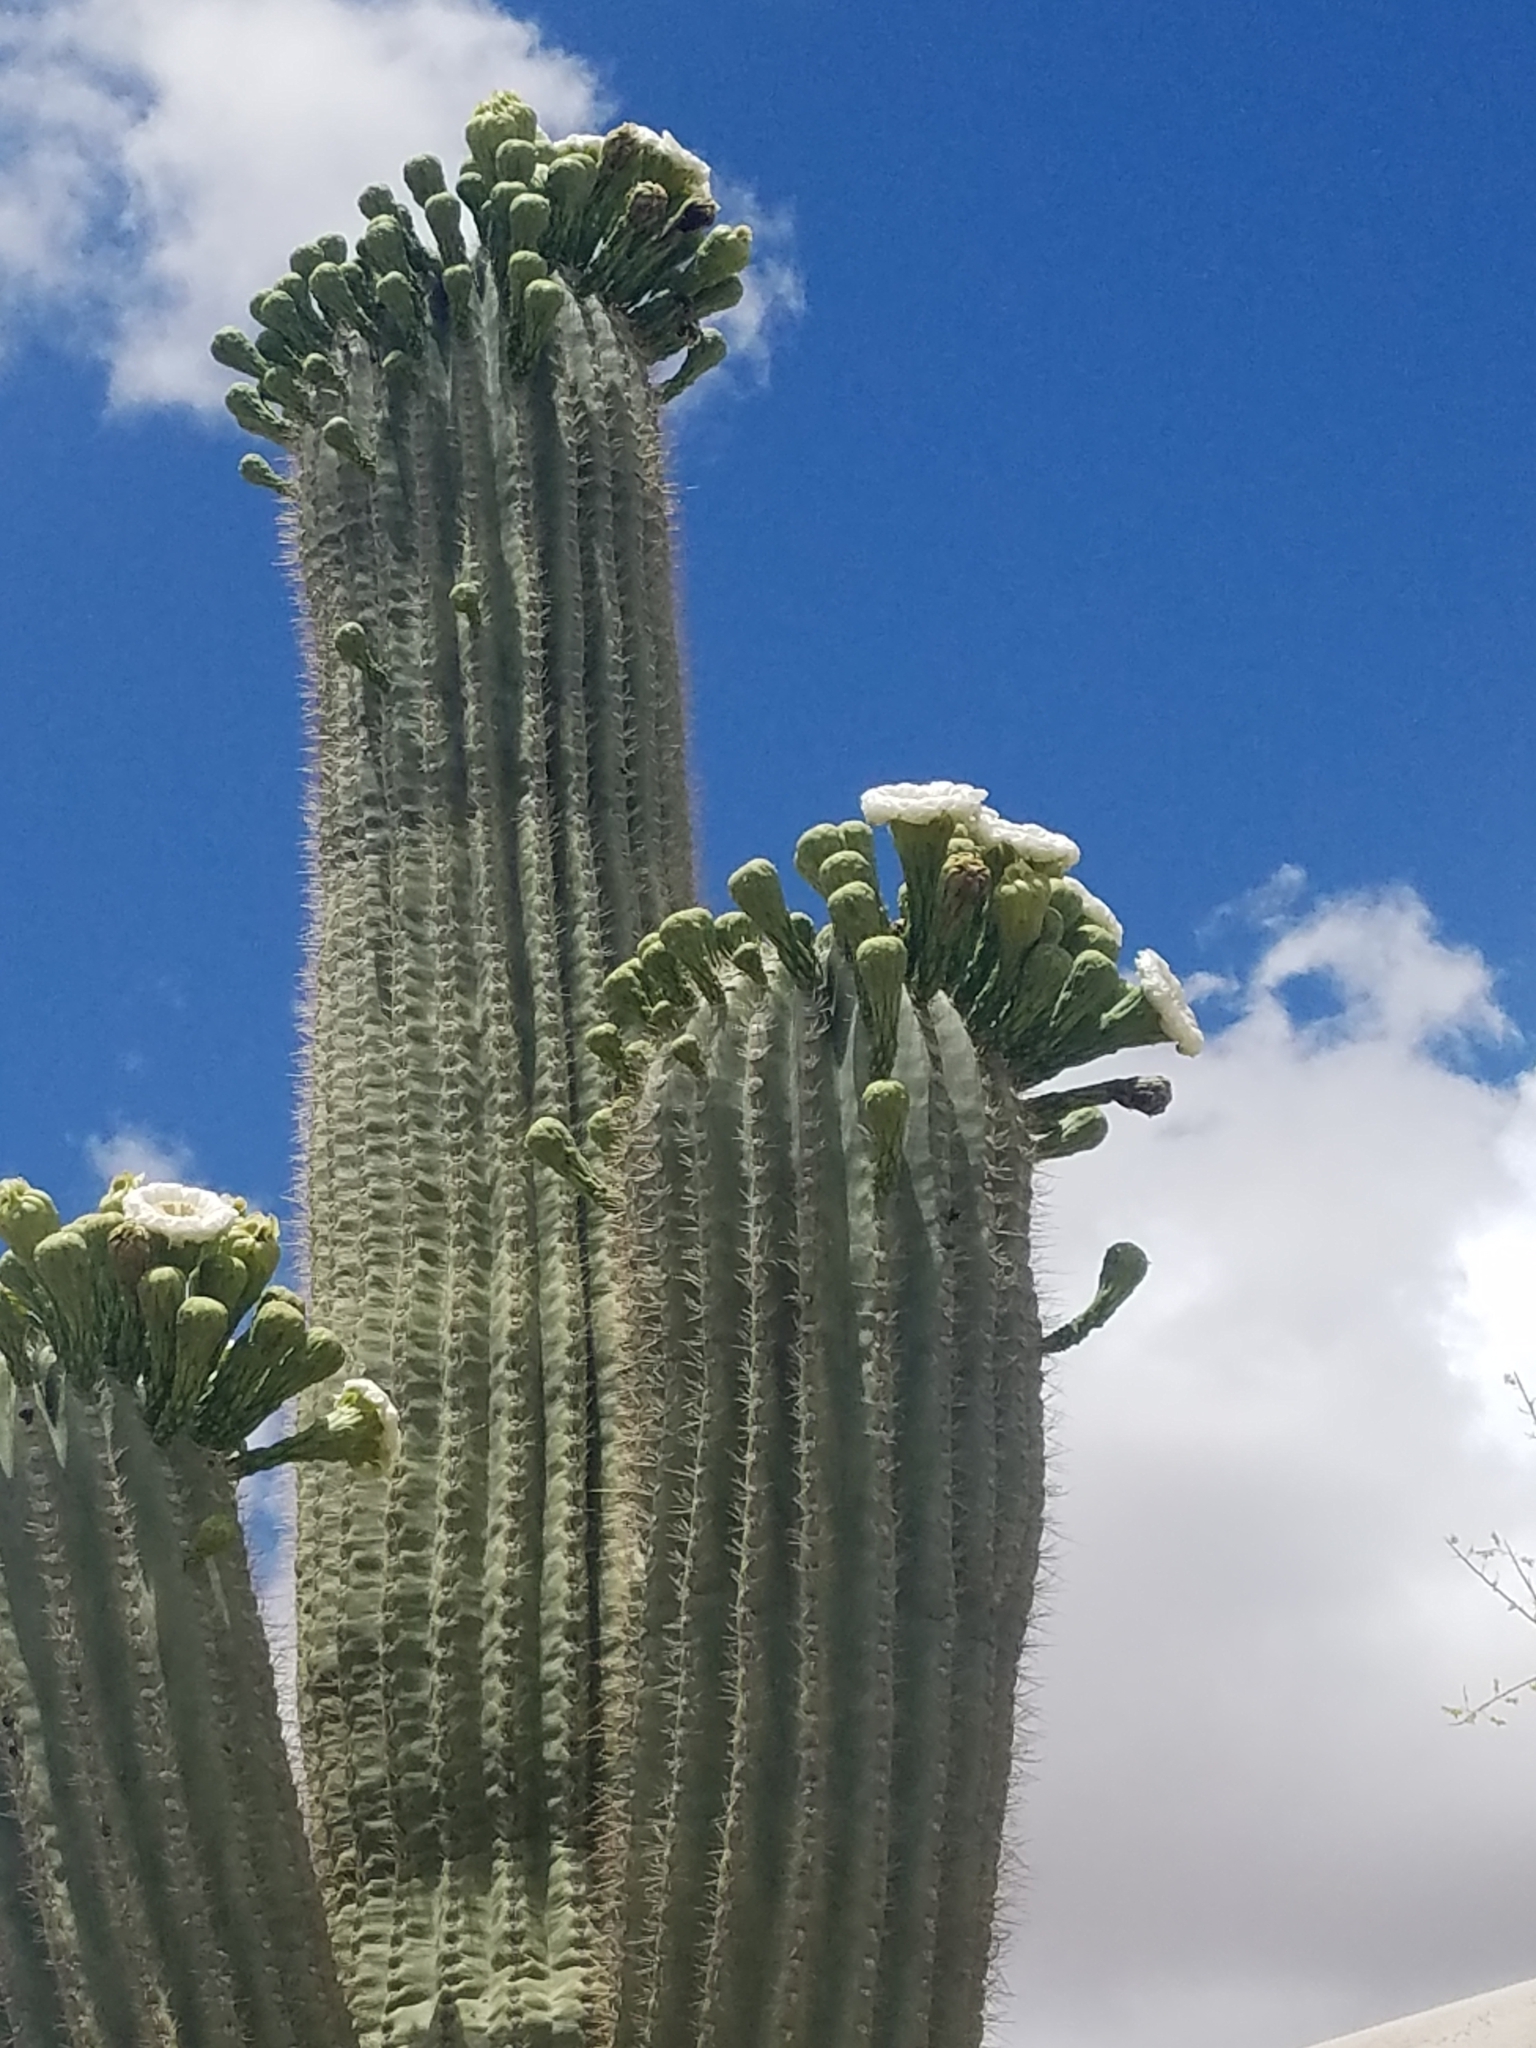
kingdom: Plantae
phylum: Tracheophyta
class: Magnoliopsida
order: Caryophyllales
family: Cactaceae
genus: Carnegiea
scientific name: Carnegiea gigantea
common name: Saguaro
